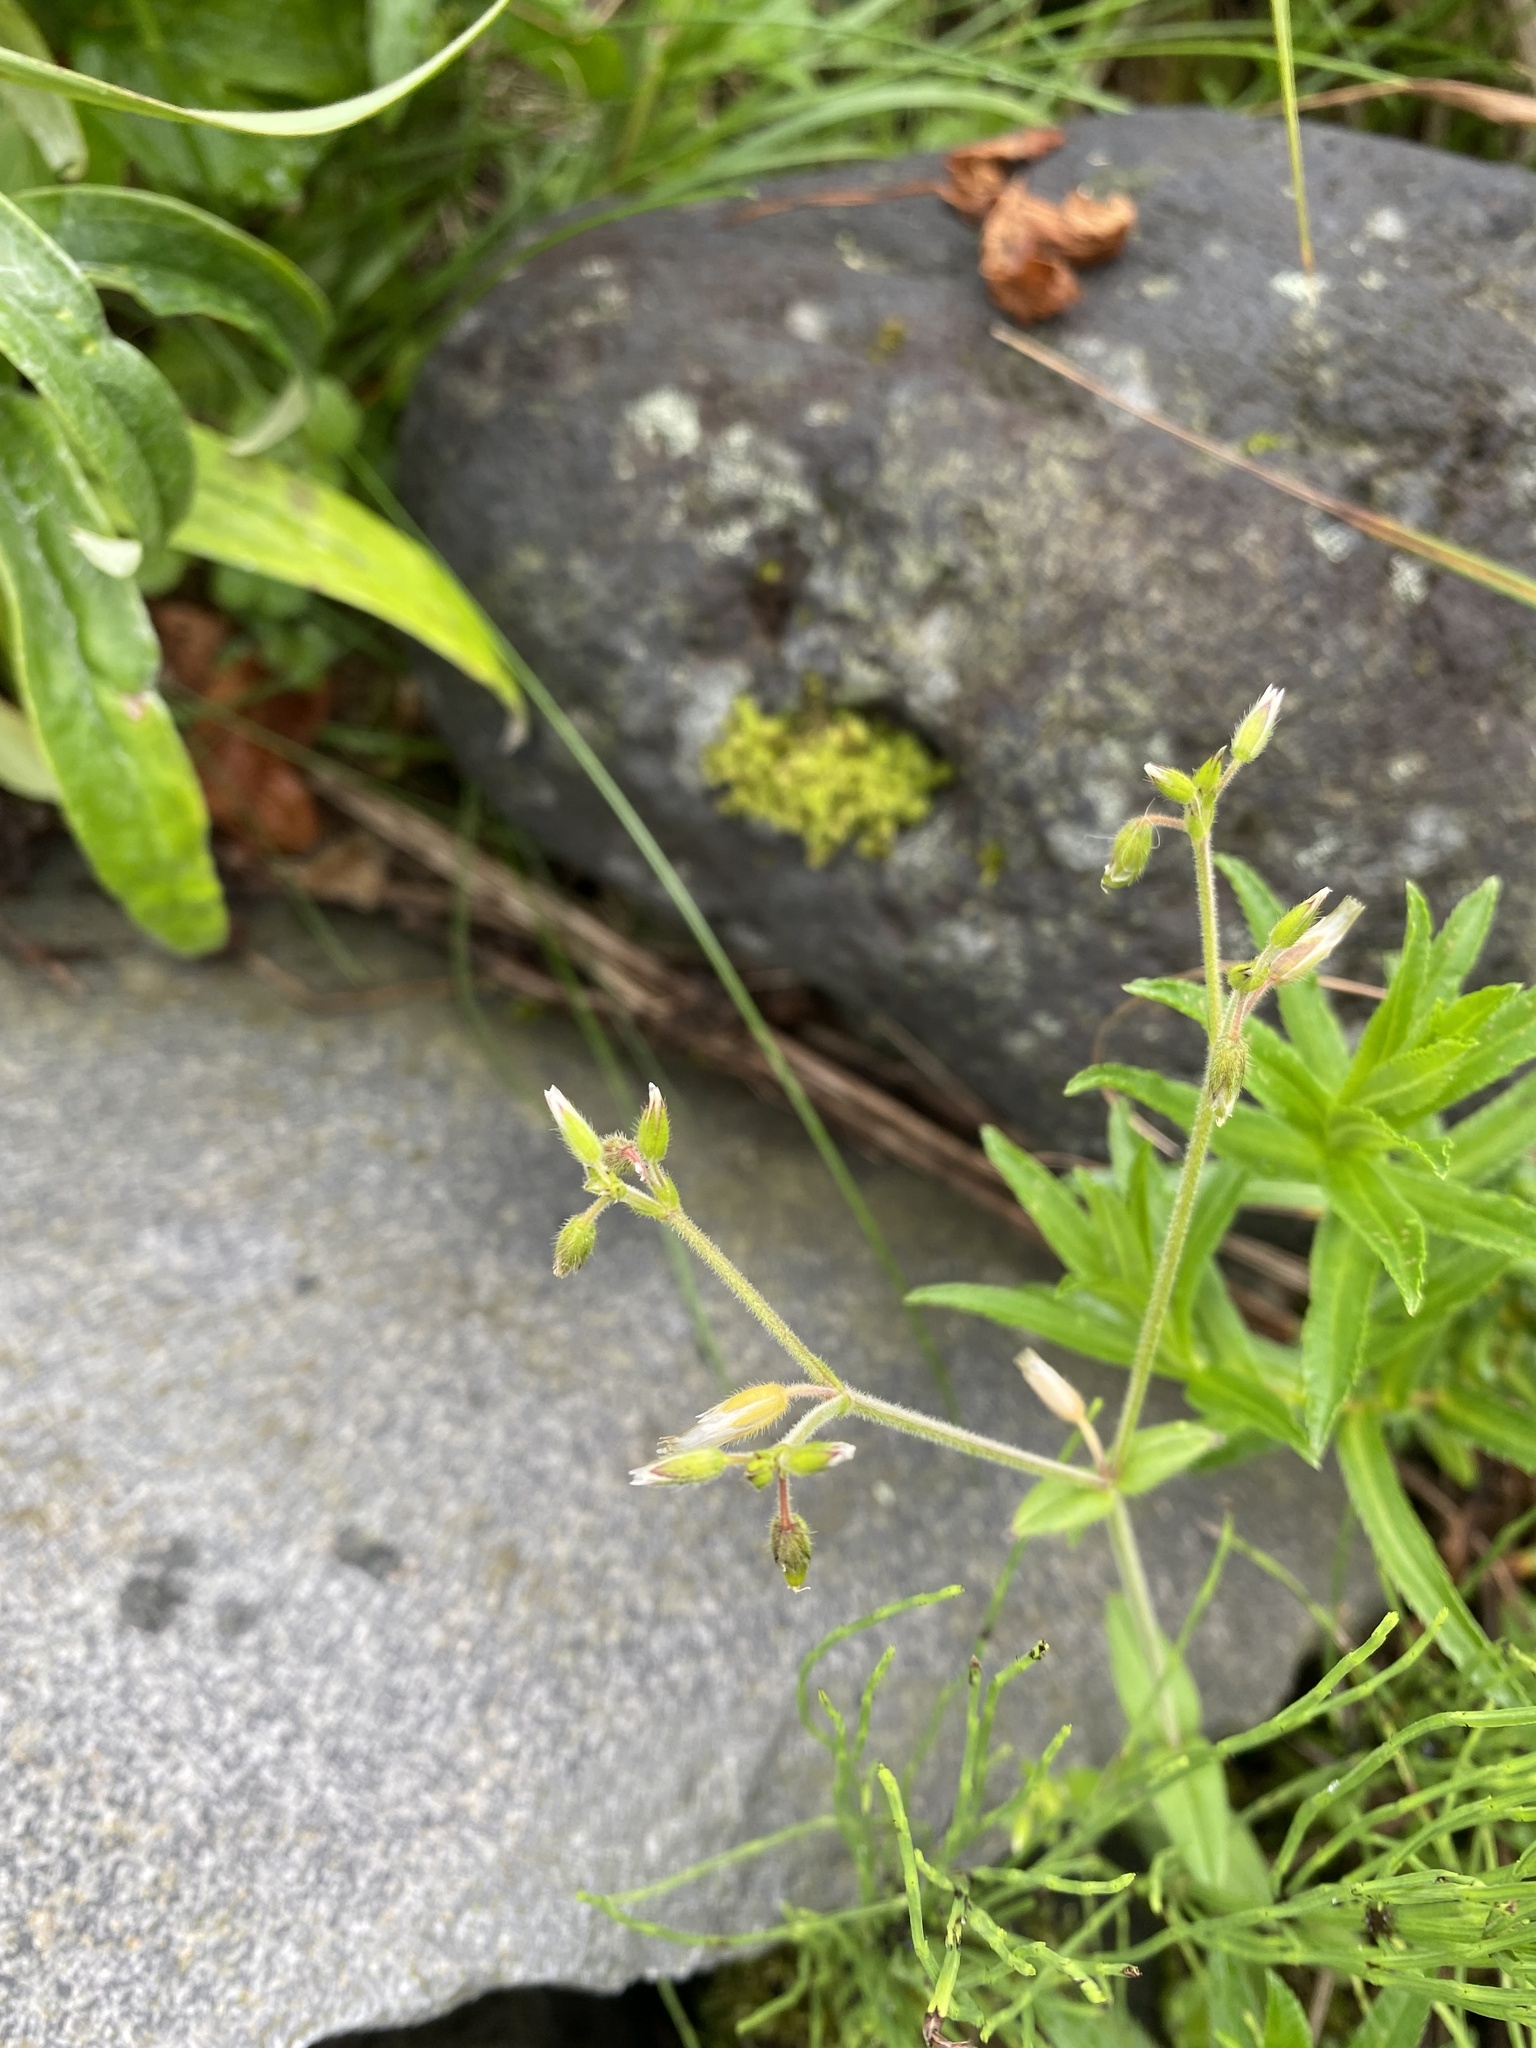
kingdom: Plantae
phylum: Tracheophyta
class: Magnoliopsida
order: Caryophyllales
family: Caryophyllaceae
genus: Cerastium
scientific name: Cerastium holosteoides
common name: Big chickweed
